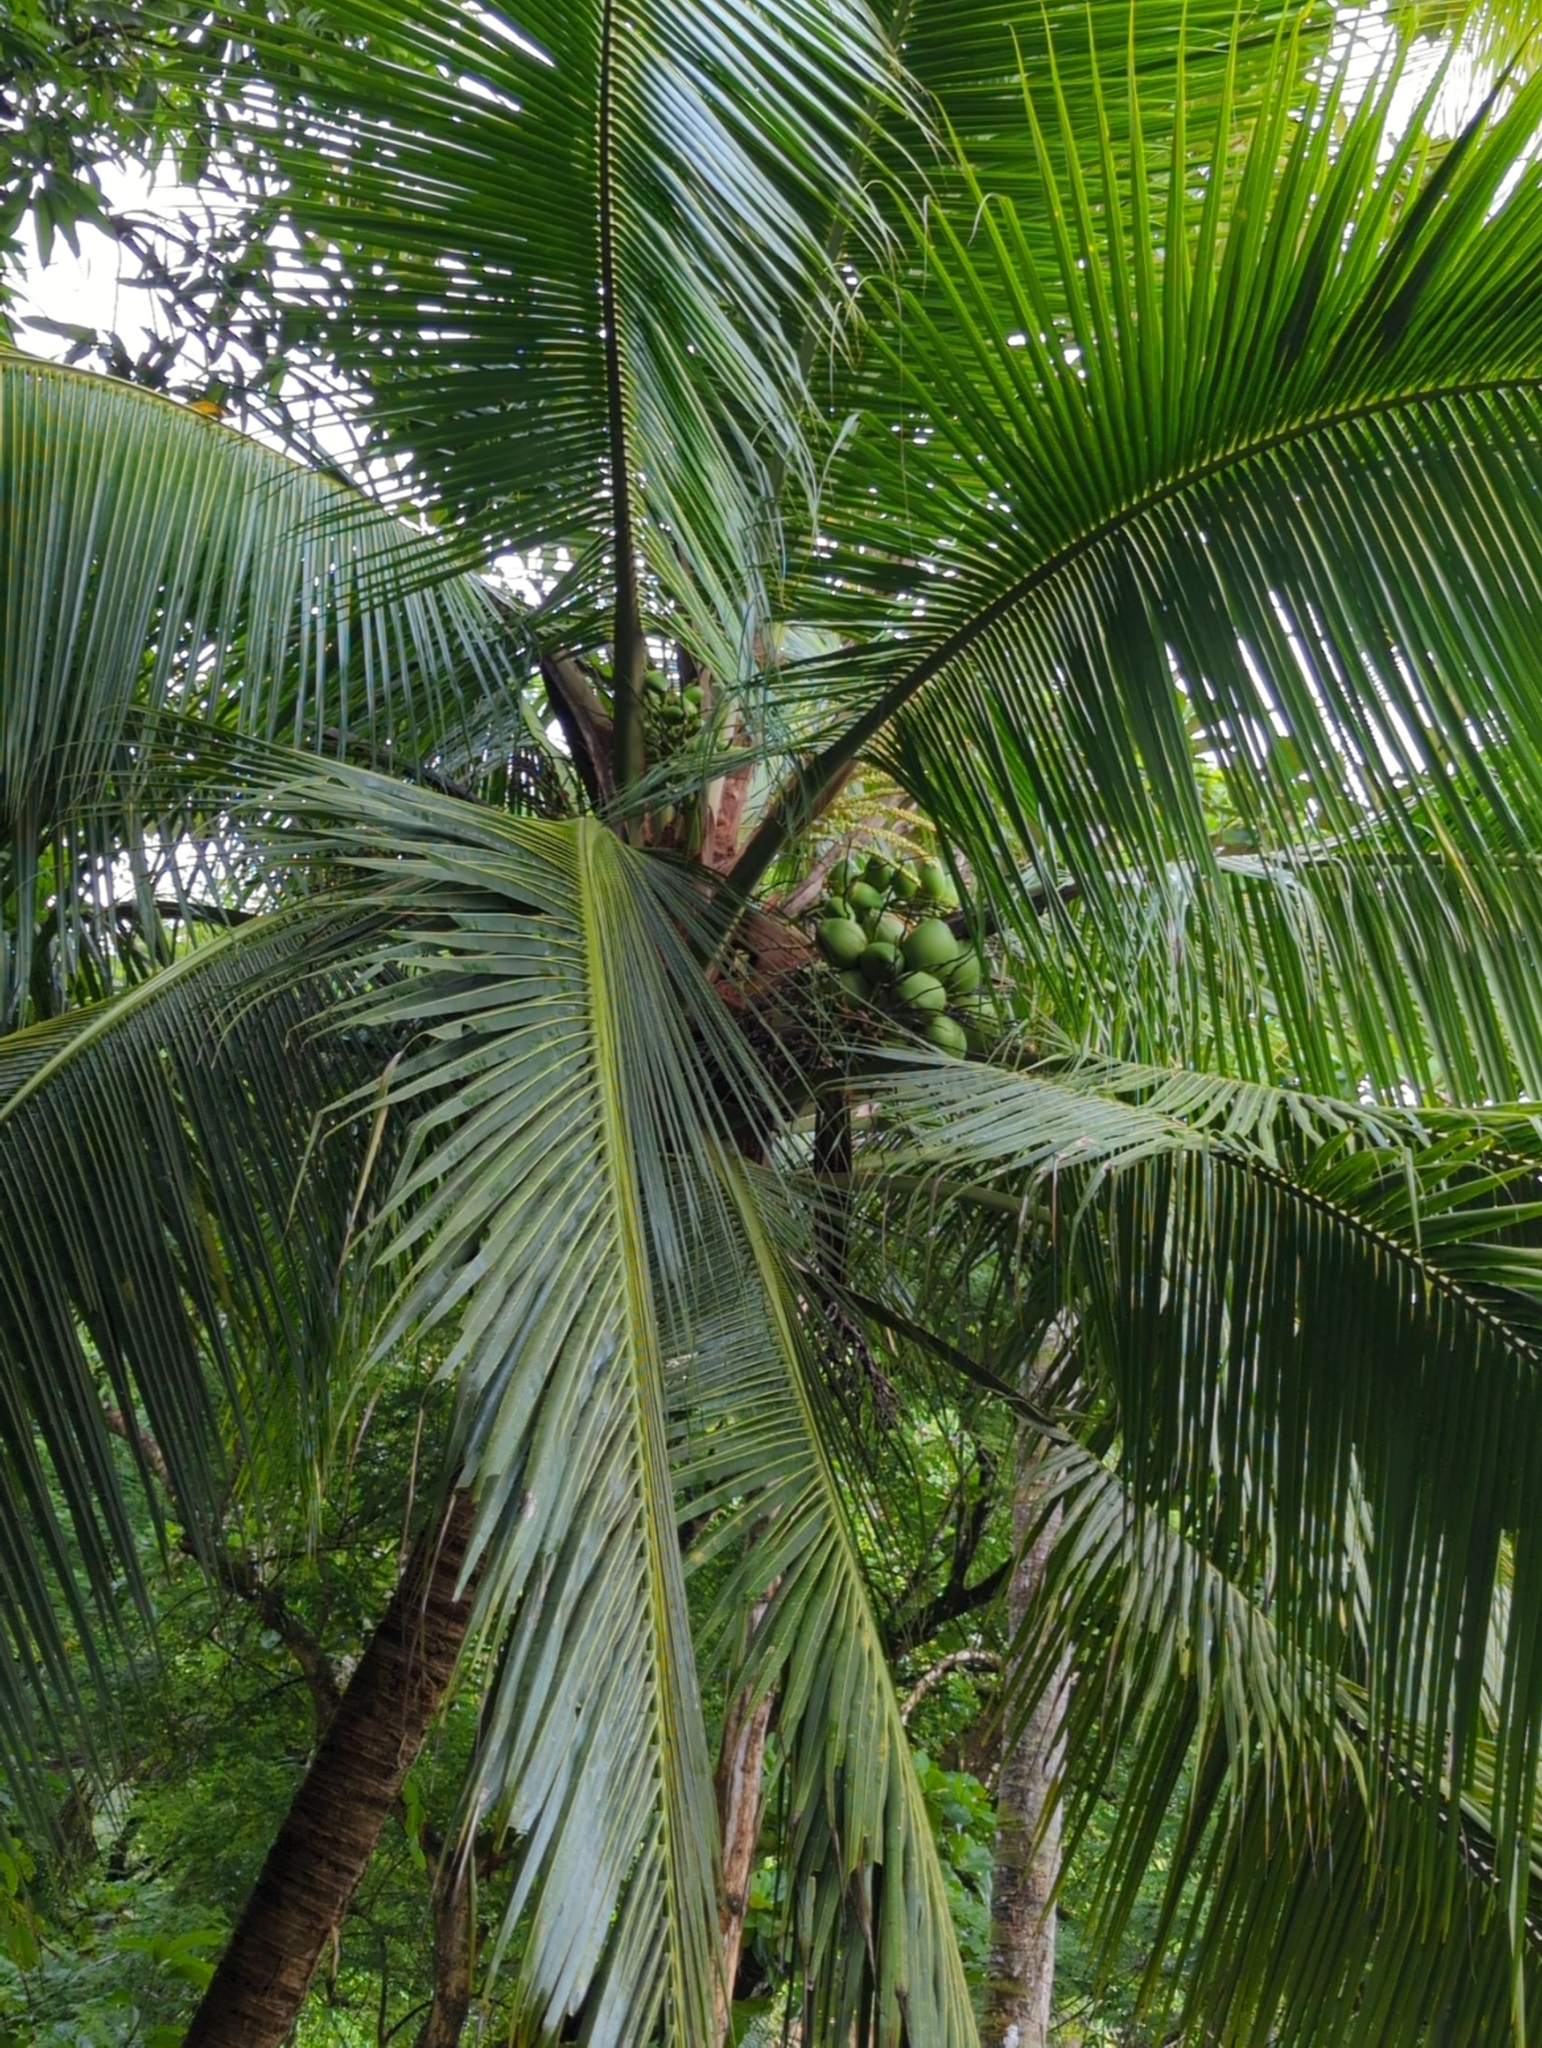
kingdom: Plantae
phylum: Tracheophyta
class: Liliopsida
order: Arecales
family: Arecaceae
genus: Cocos
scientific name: Cocos nucifera
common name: Coconut palm
